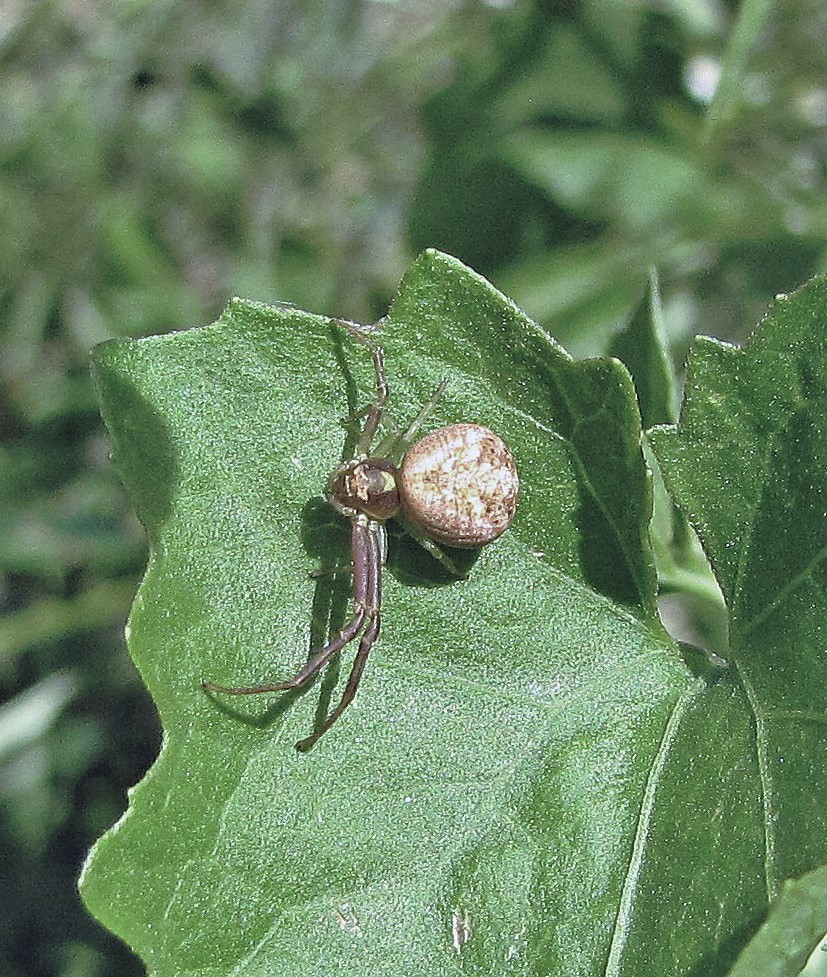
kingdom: Animalia
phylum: Arthropoda
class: Arachnida
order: Araneae
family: Thomisidae
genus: Misumenops
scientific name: Misumenops
